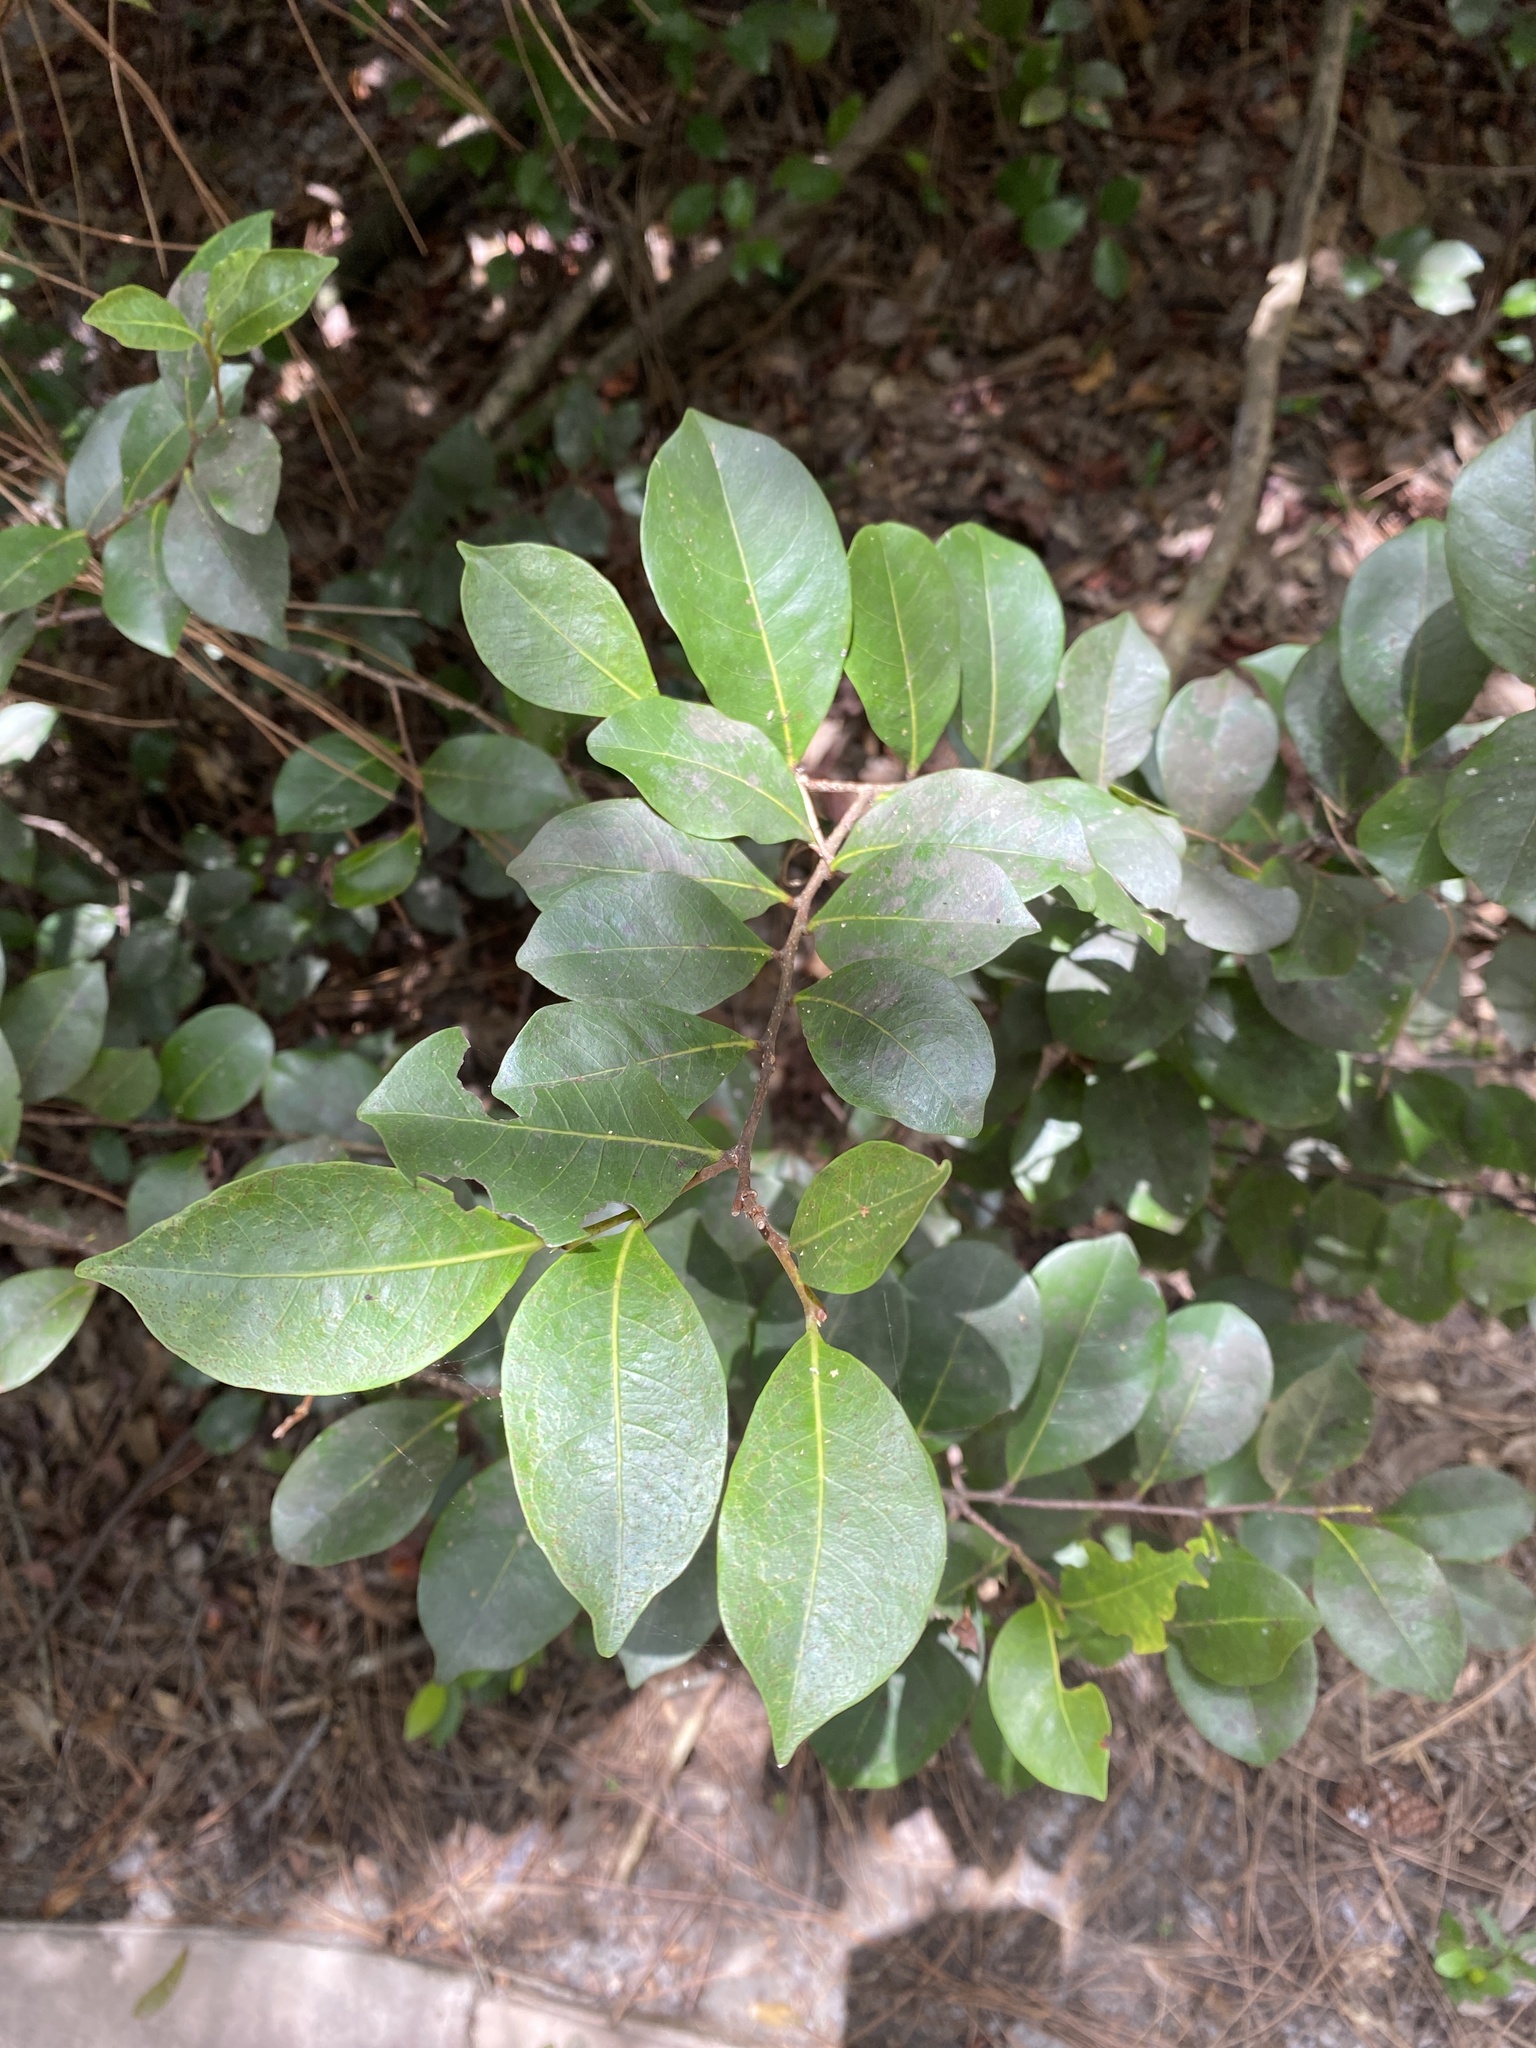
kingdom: Plantae
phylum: Tracheophyta
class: Magnoliopsida
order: Malpighiales
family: Chrysobalanaceae
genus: Chrysobalanus
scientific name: Chrysobalanus icaco
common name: Coco plum
